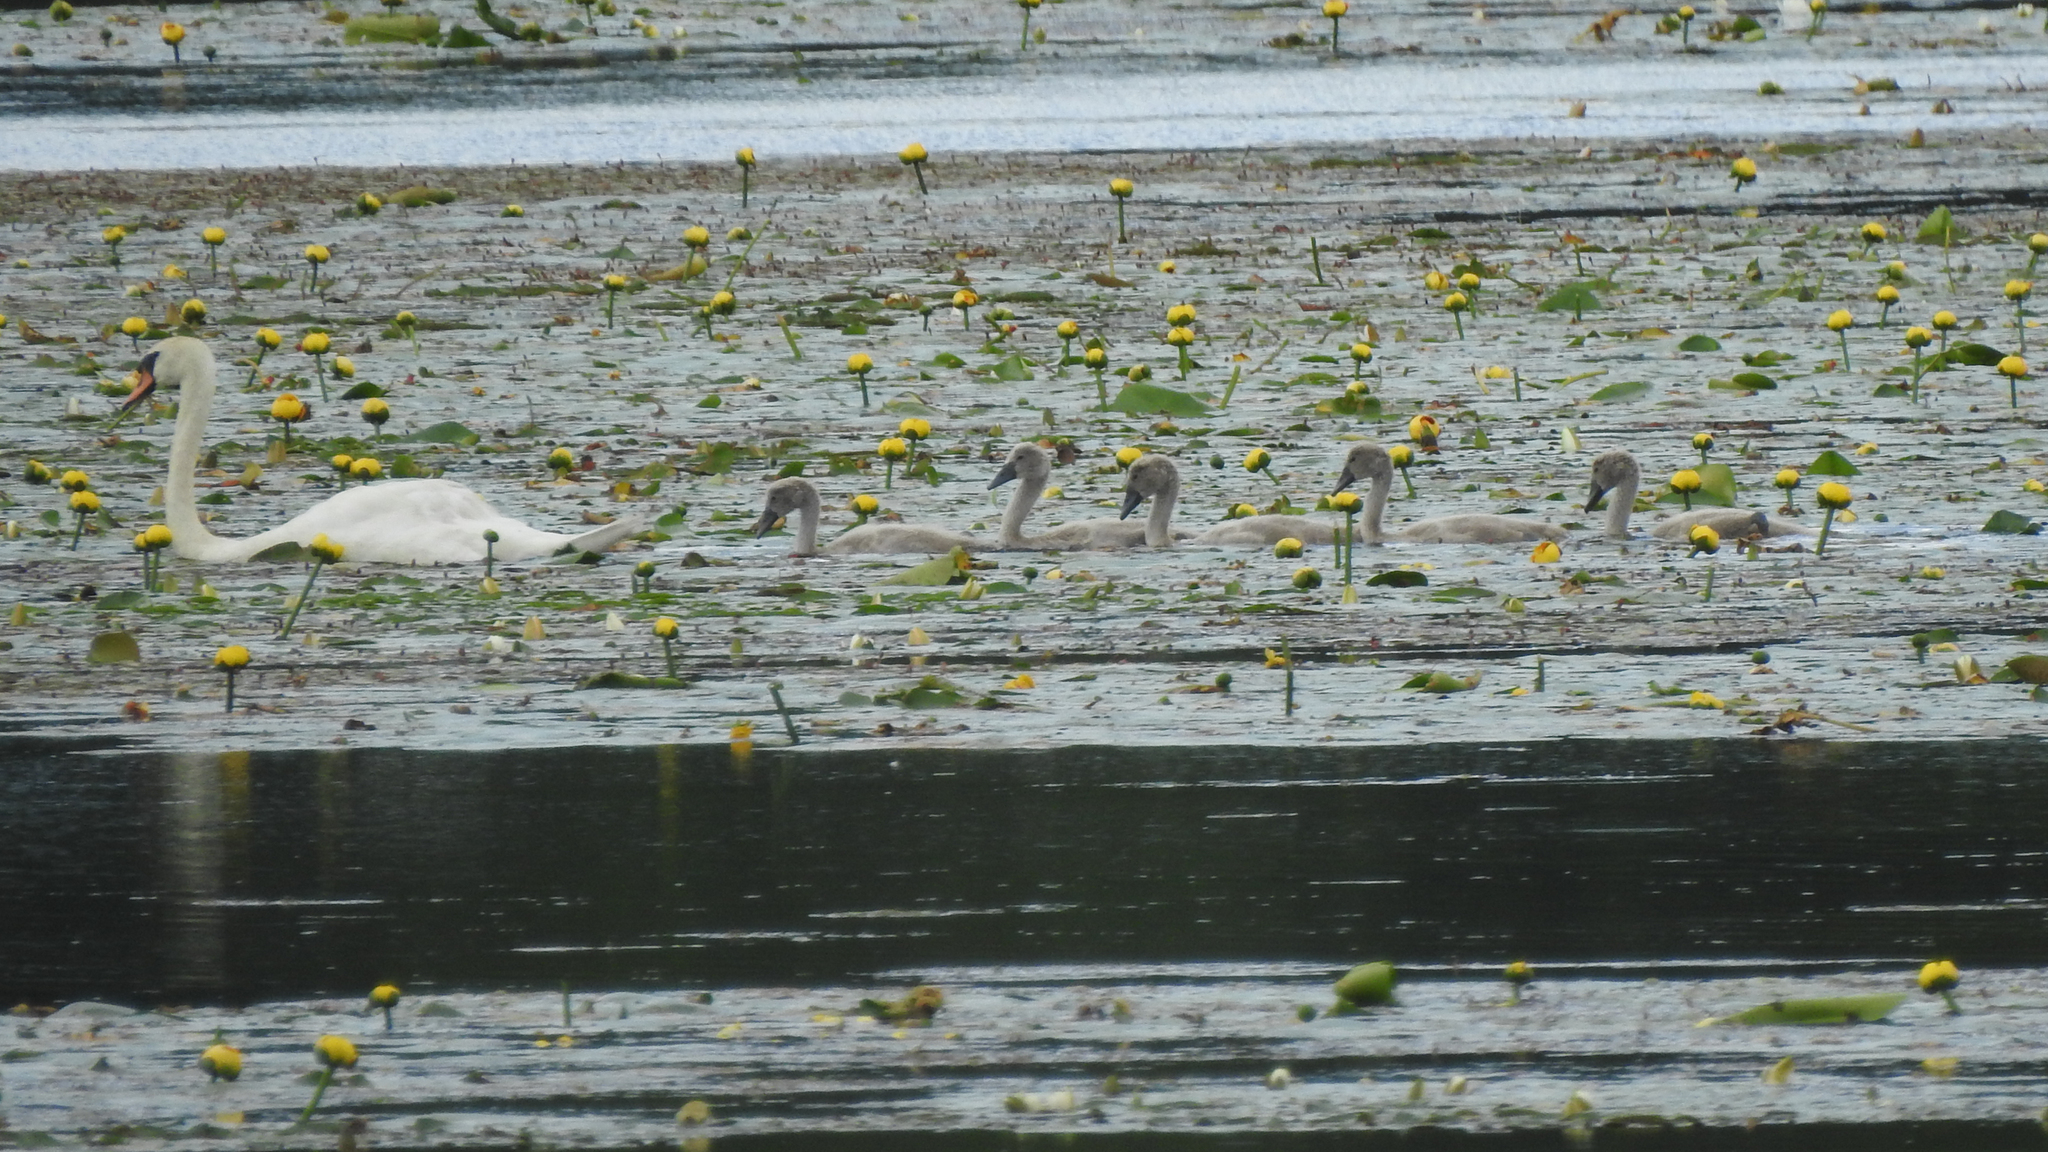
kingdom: Animalia
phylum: Chordata
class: Aves
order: Anseriformes
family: Anatidae
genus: Cygnus
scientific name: Cygnus olor
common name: Mute swan
